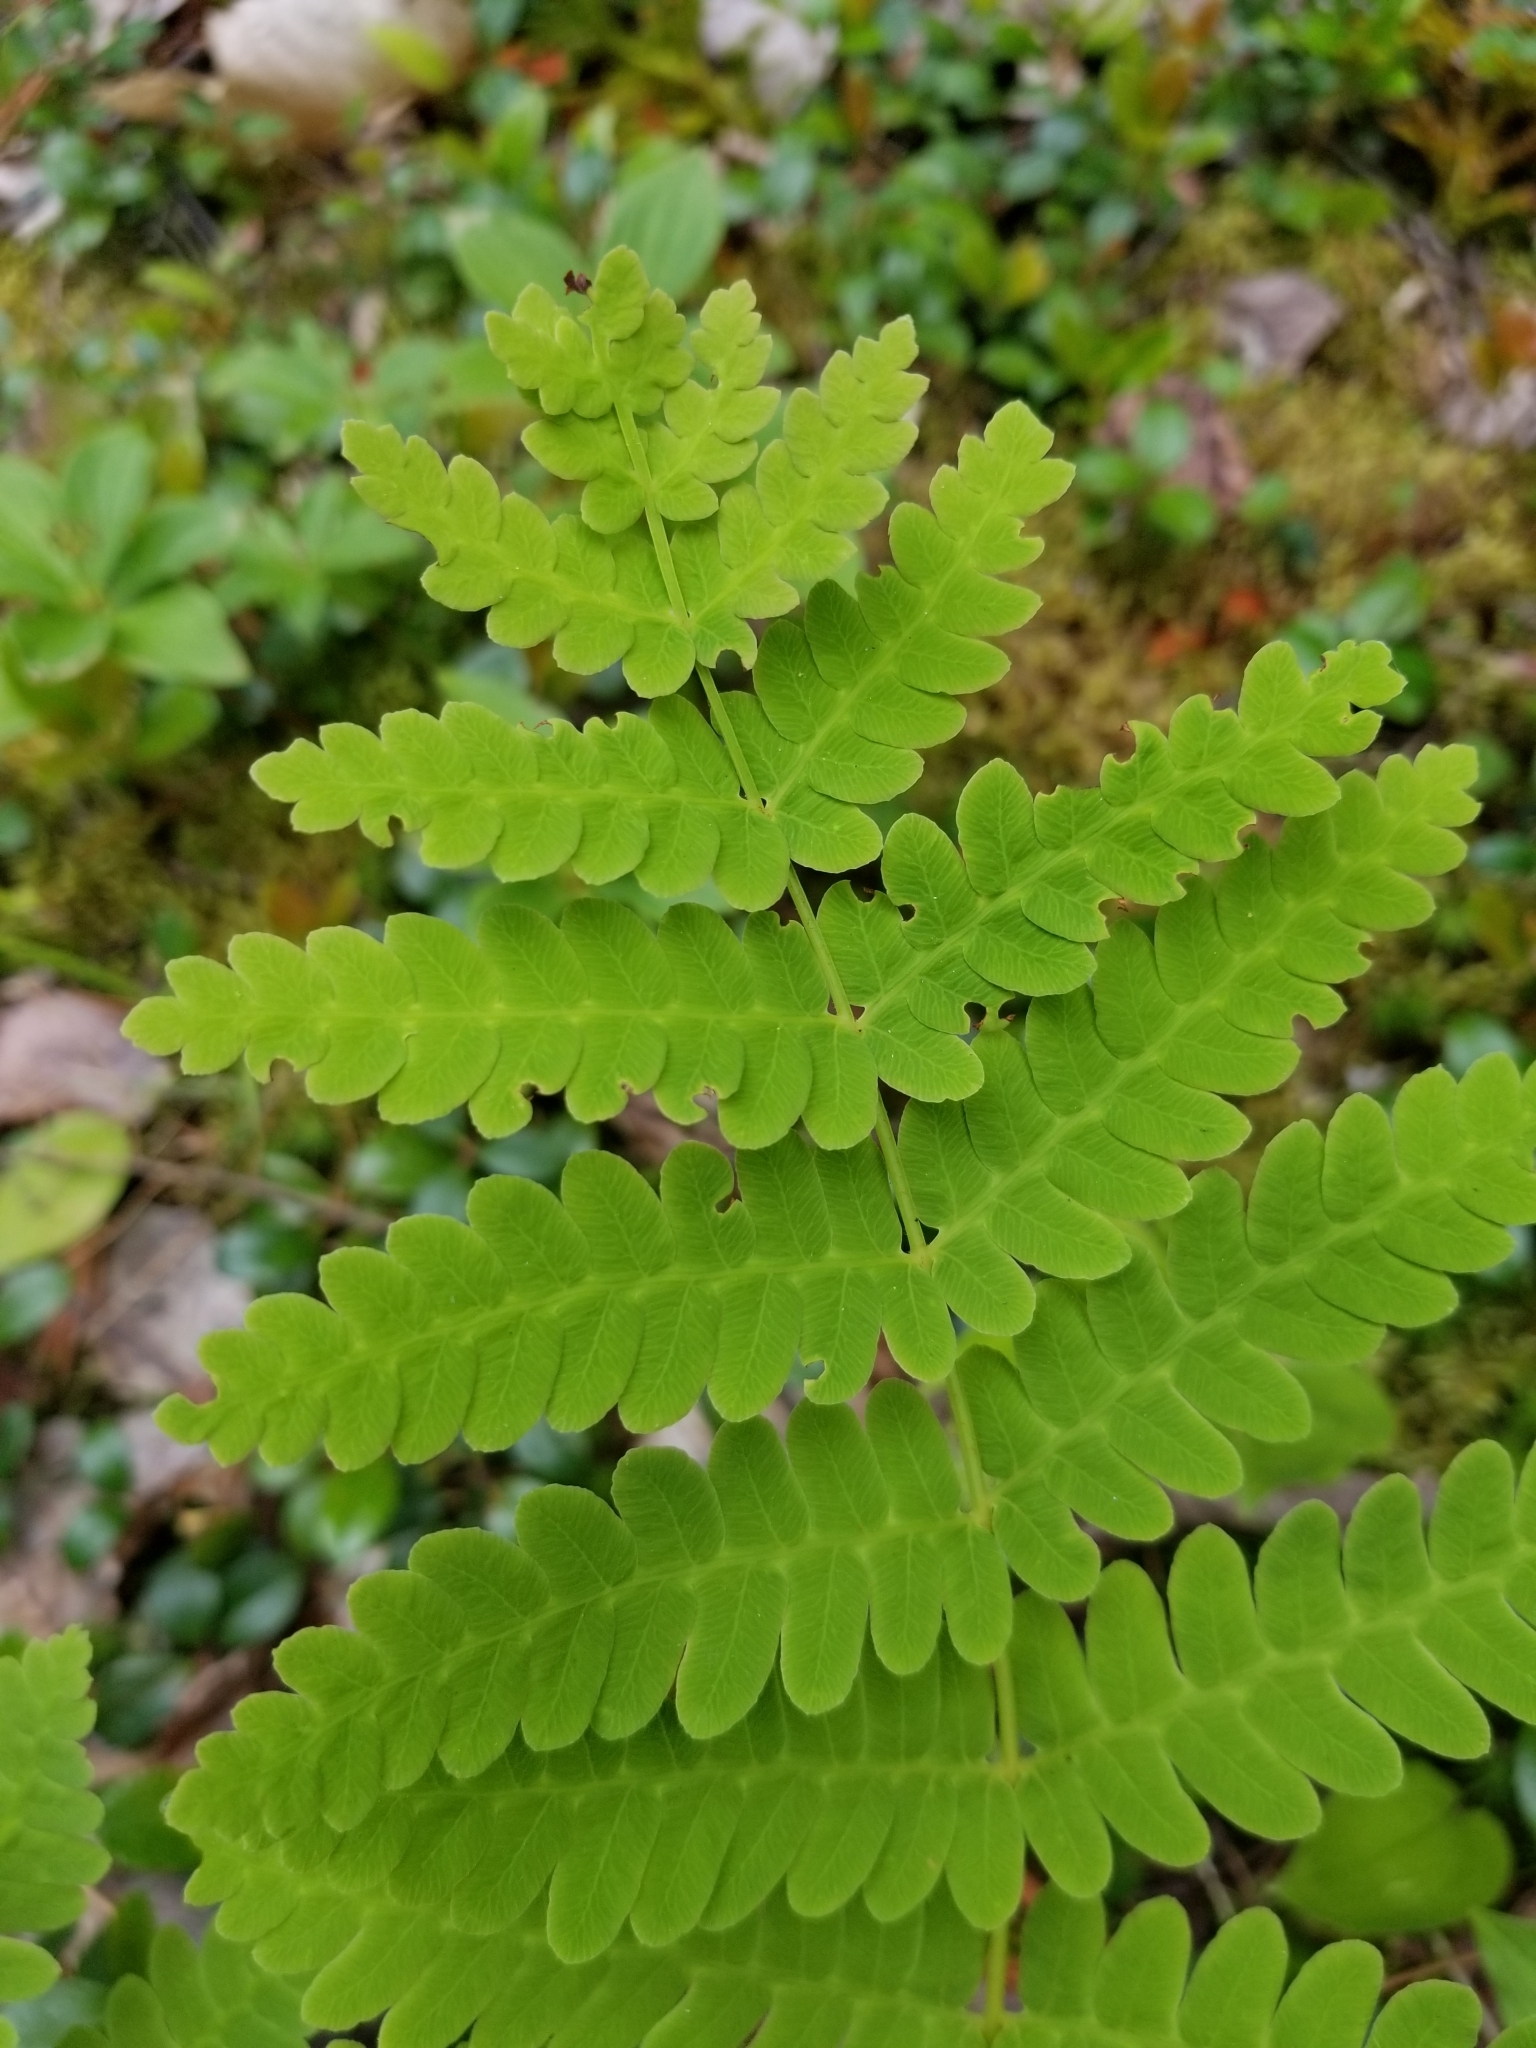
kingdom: Plantae
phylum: Tracheophyta
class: Polypodiopsida
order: Osmundales
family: Osmundaceae
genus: Claytosmunda
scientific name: Claytosmunda claytoniana
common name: Clayton's fern
